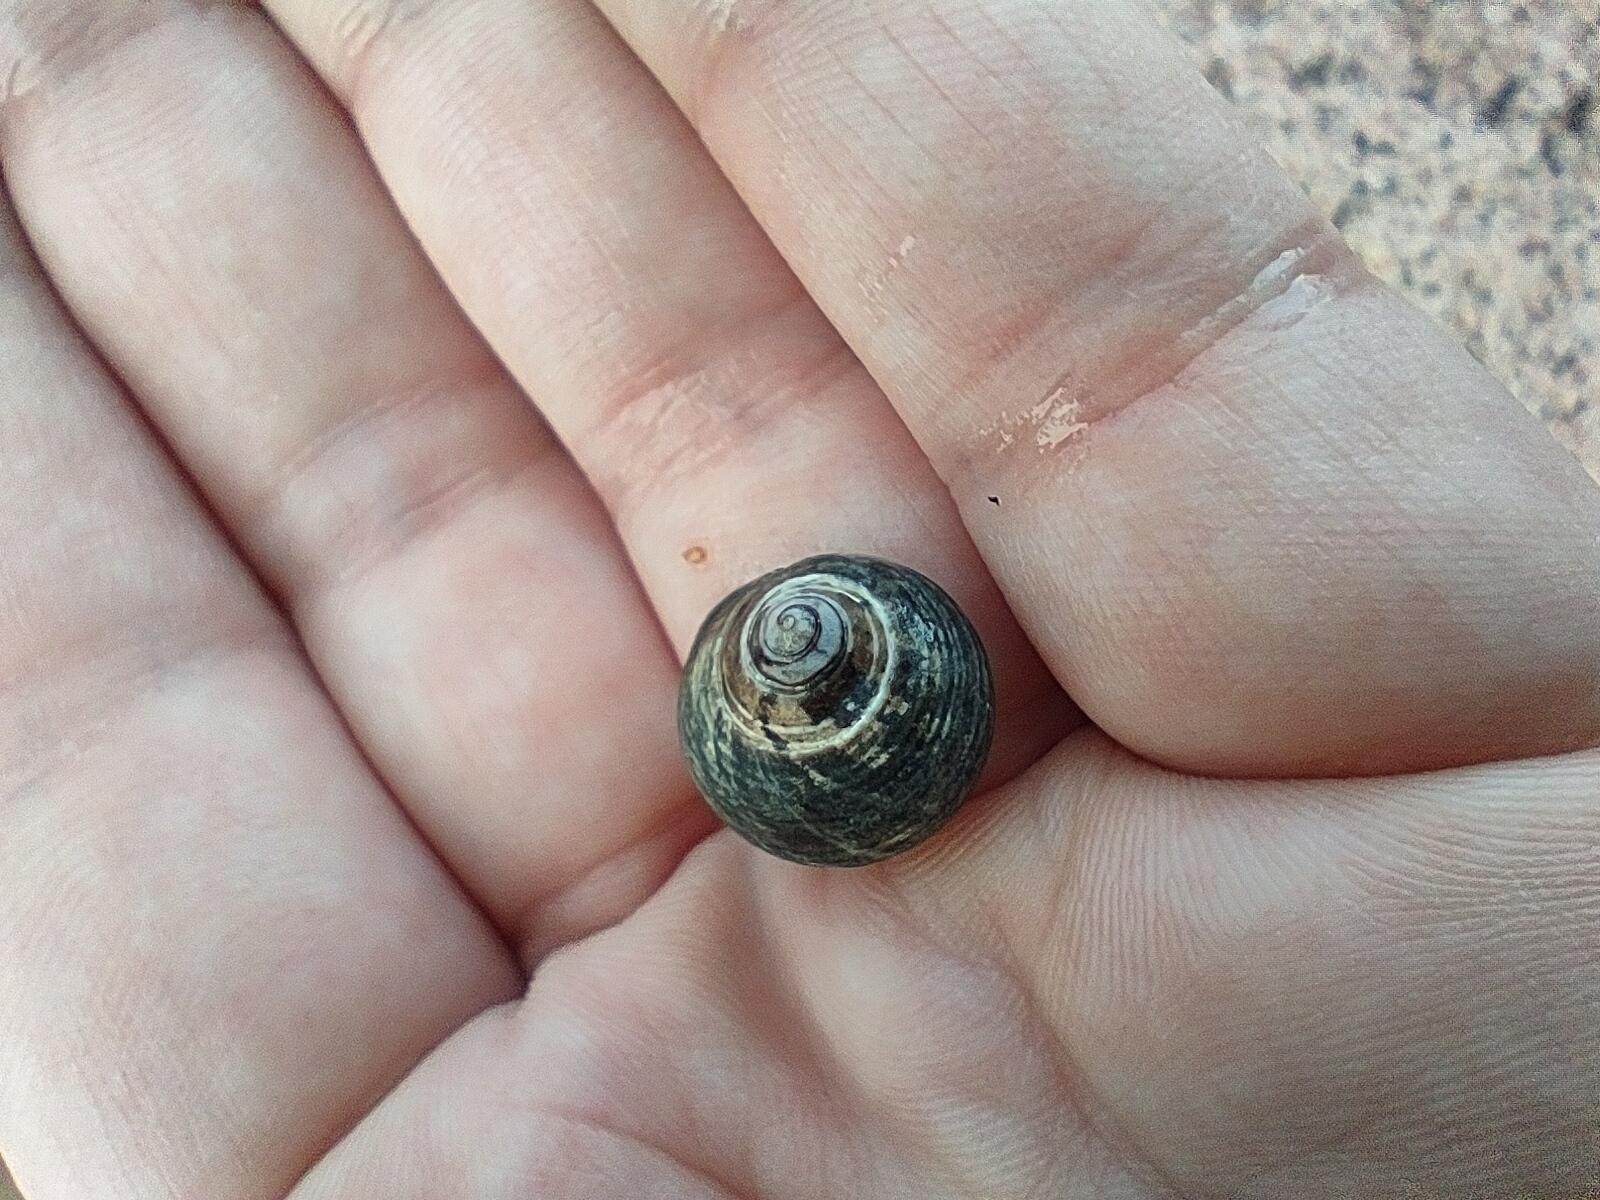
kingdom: Animalia
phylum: Mollusca
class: Gastropoda
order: Littorinimorpha
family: Littorinidae
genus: Littorina
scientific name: Littorina littorea
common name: Common periwinkle
